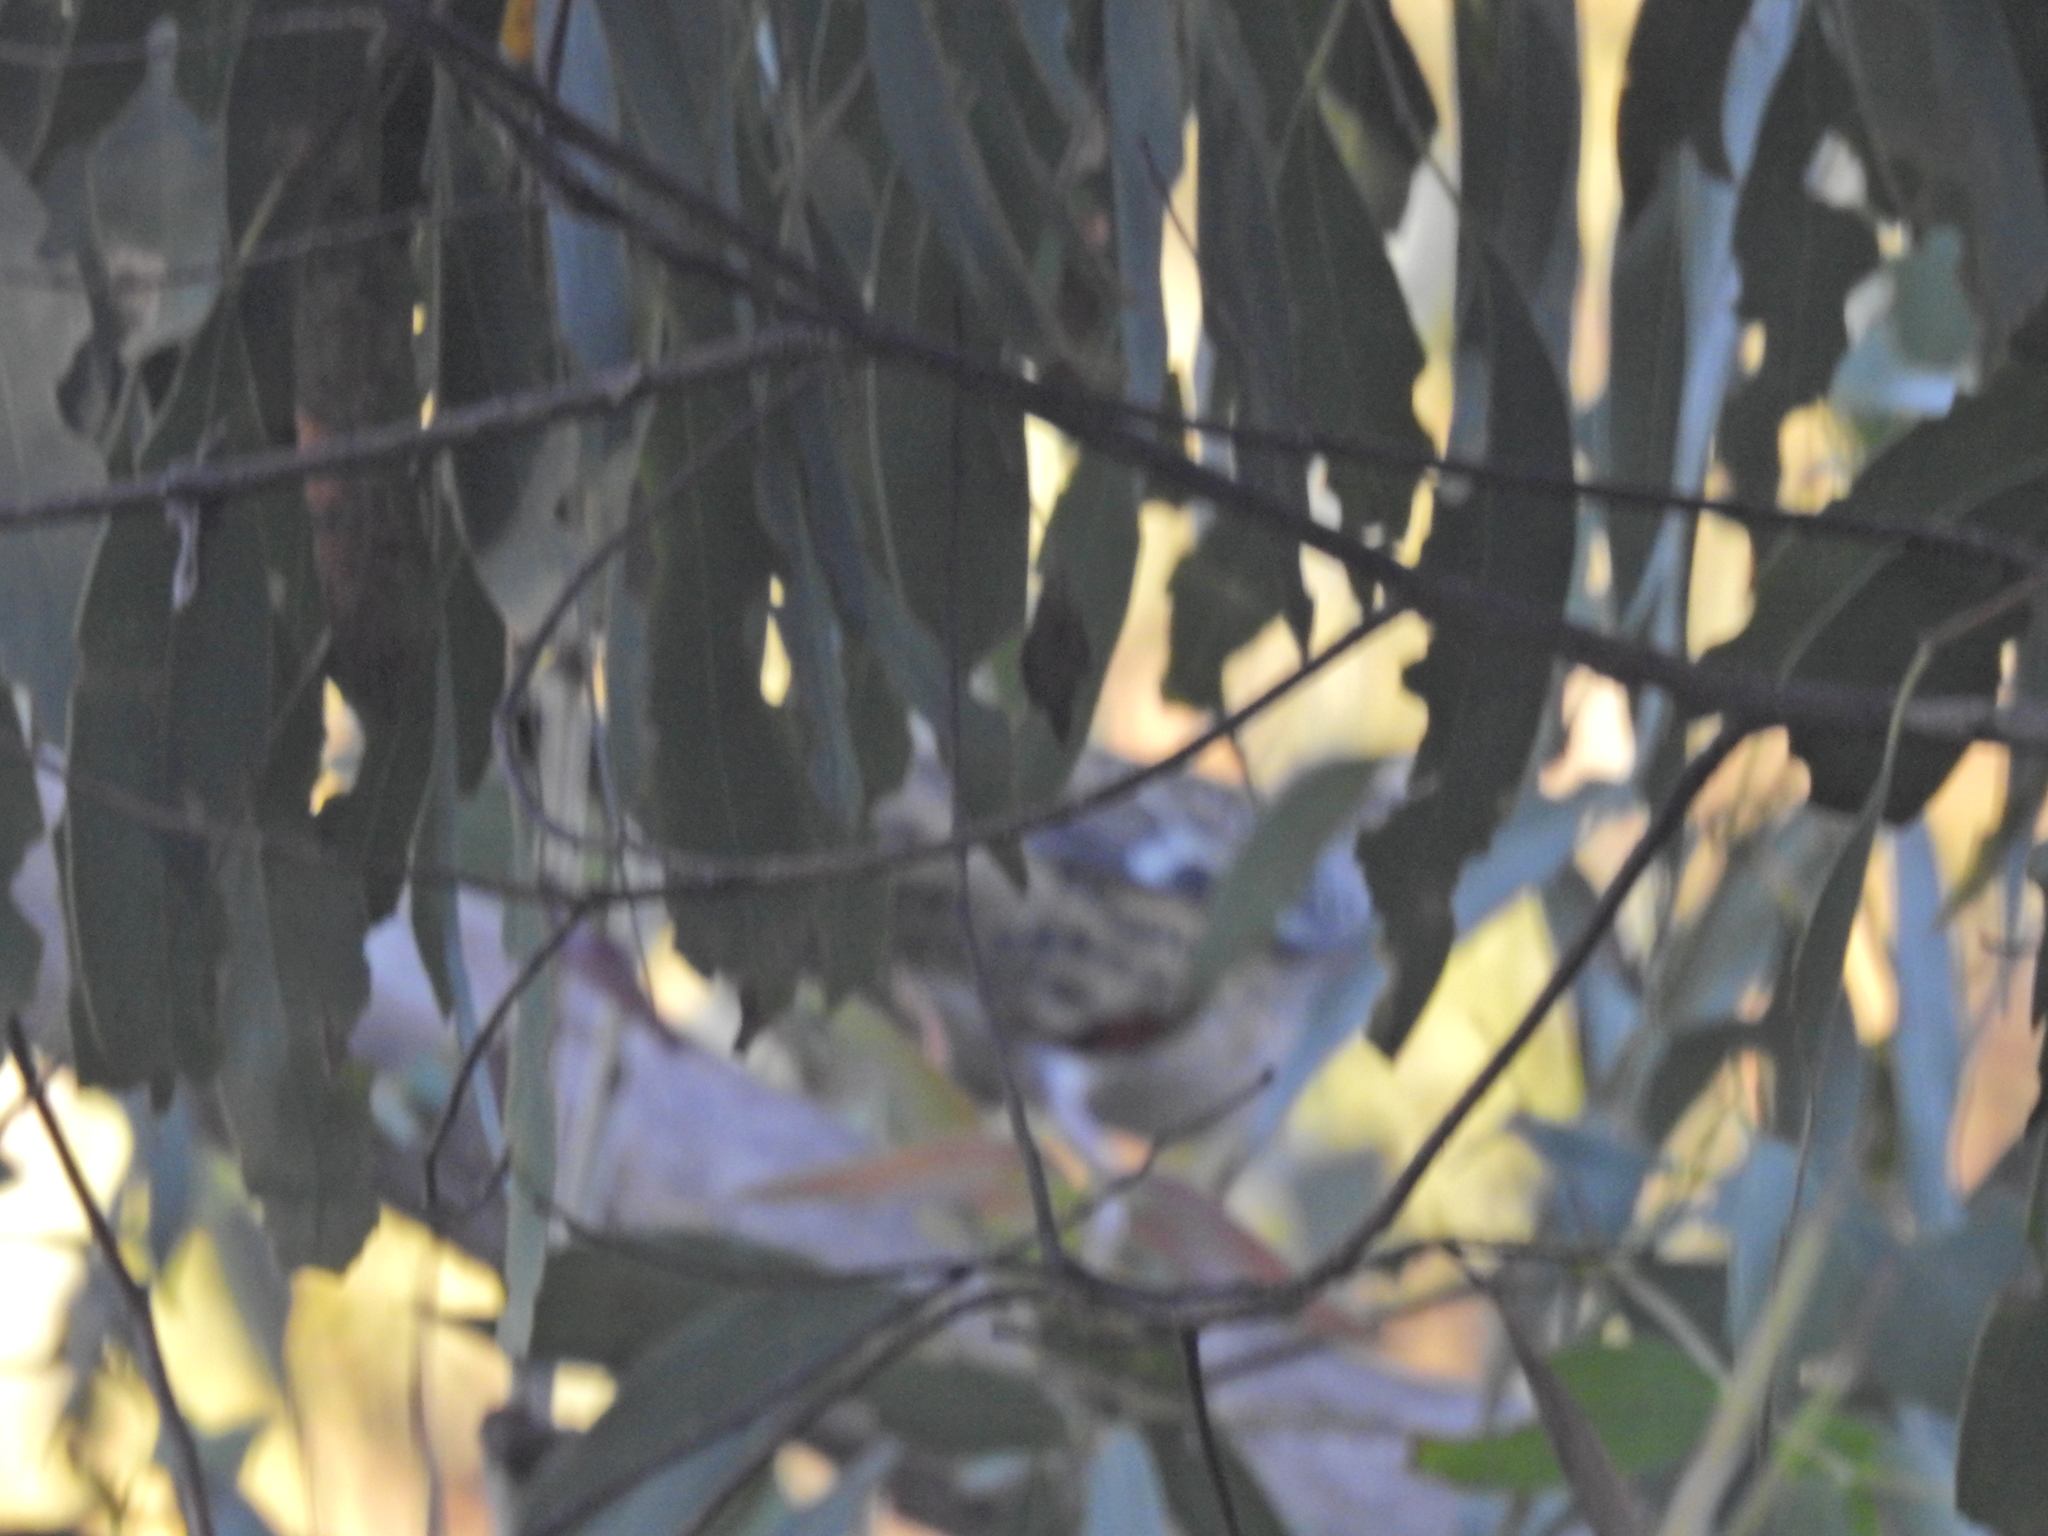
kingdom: Animalia
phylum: Chordata
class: Aves
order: Passeriformes
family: Psophodidae
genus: Cinclosoma
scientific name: Cinclosoma punctatum
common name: Spotted quail-thrush
